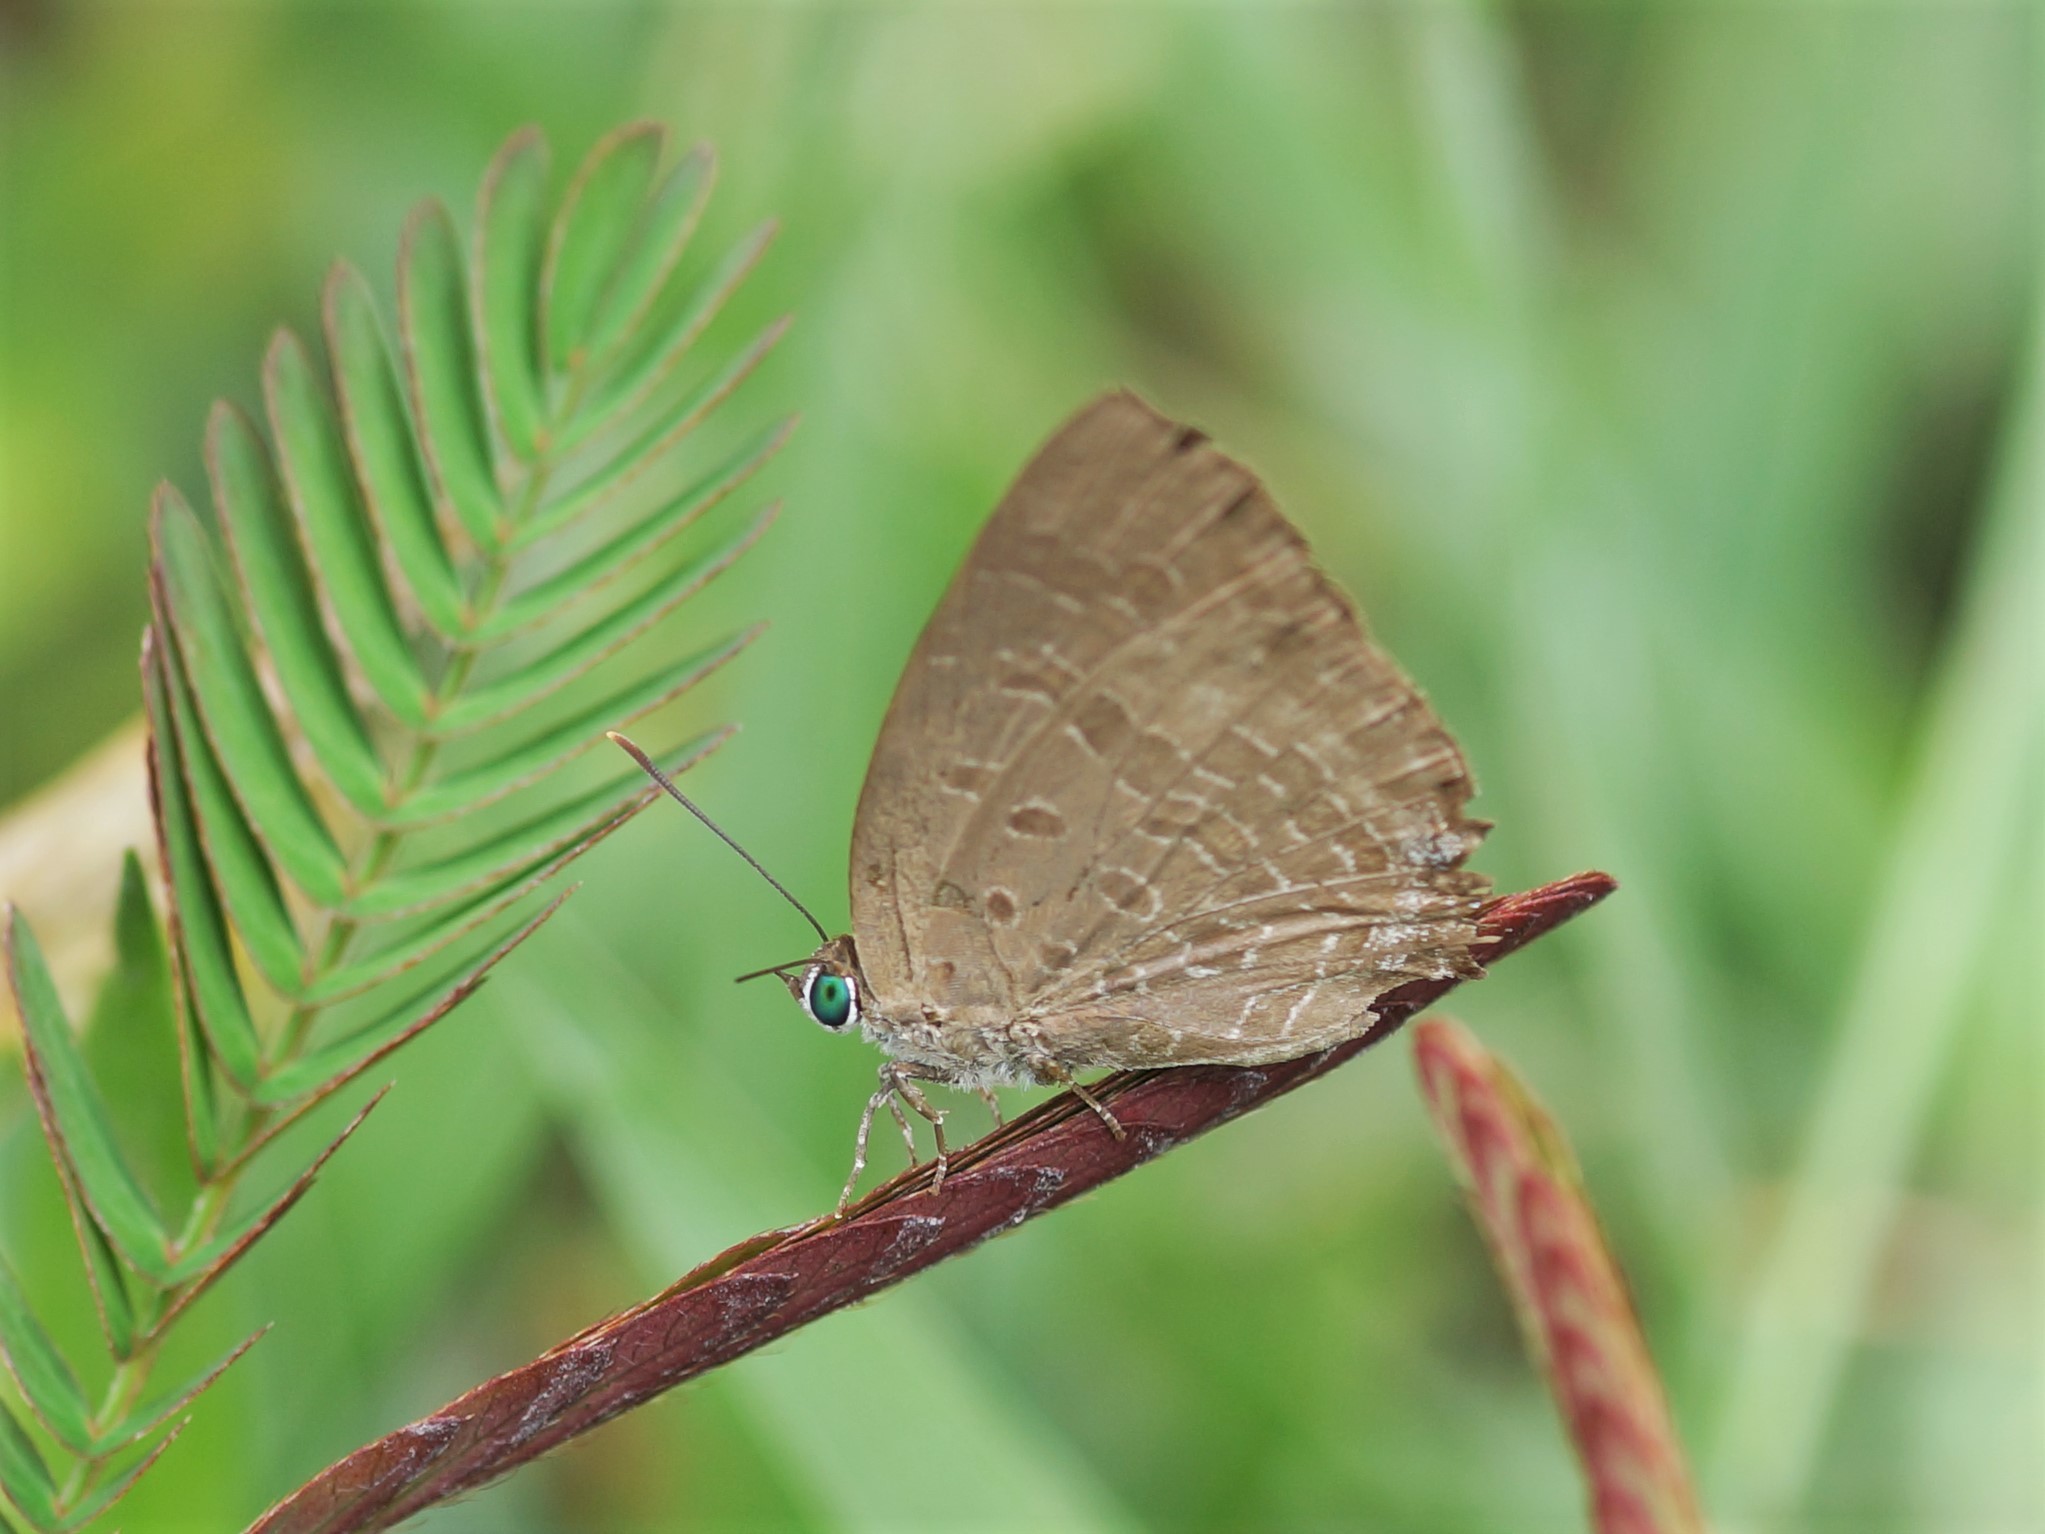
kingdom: Animalia
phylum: Arthropoda
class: Insecta
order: Lepidoptera
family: Lycaenidae
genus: Arhopala
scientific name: Arhopala elopura
